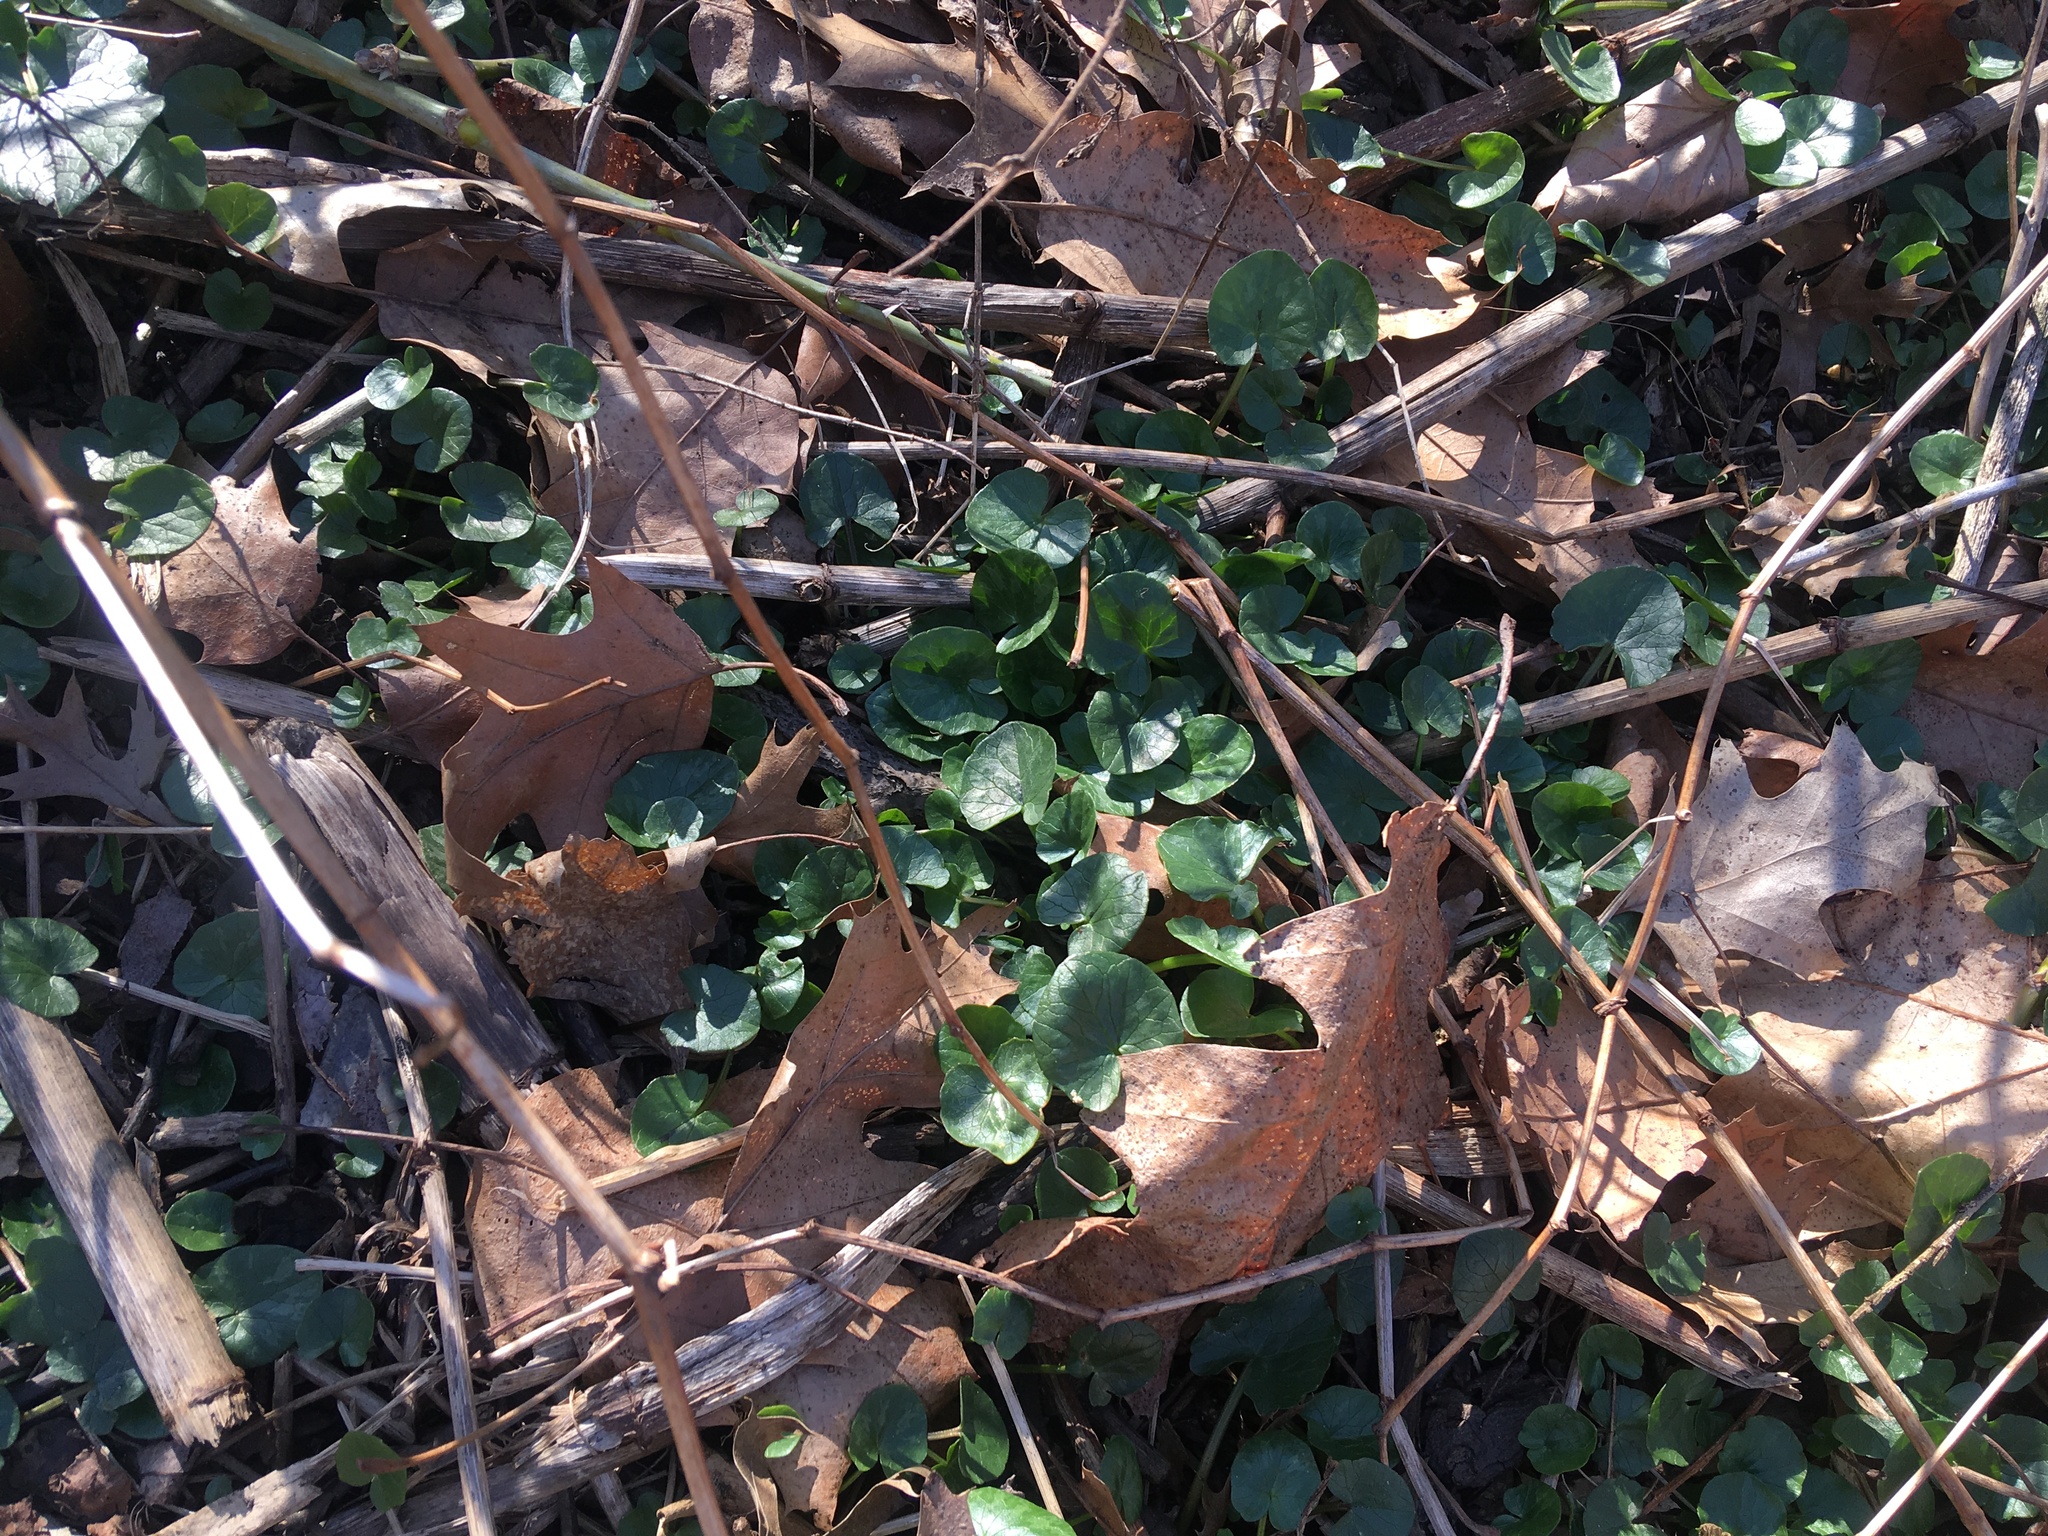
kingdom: Plantae
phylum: Tracheophyta
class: Magnoliopsida
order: Ranunculales
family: Ranunculaceae
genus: Ficaria
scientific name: Ficaria verna
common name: Lesser celandine
